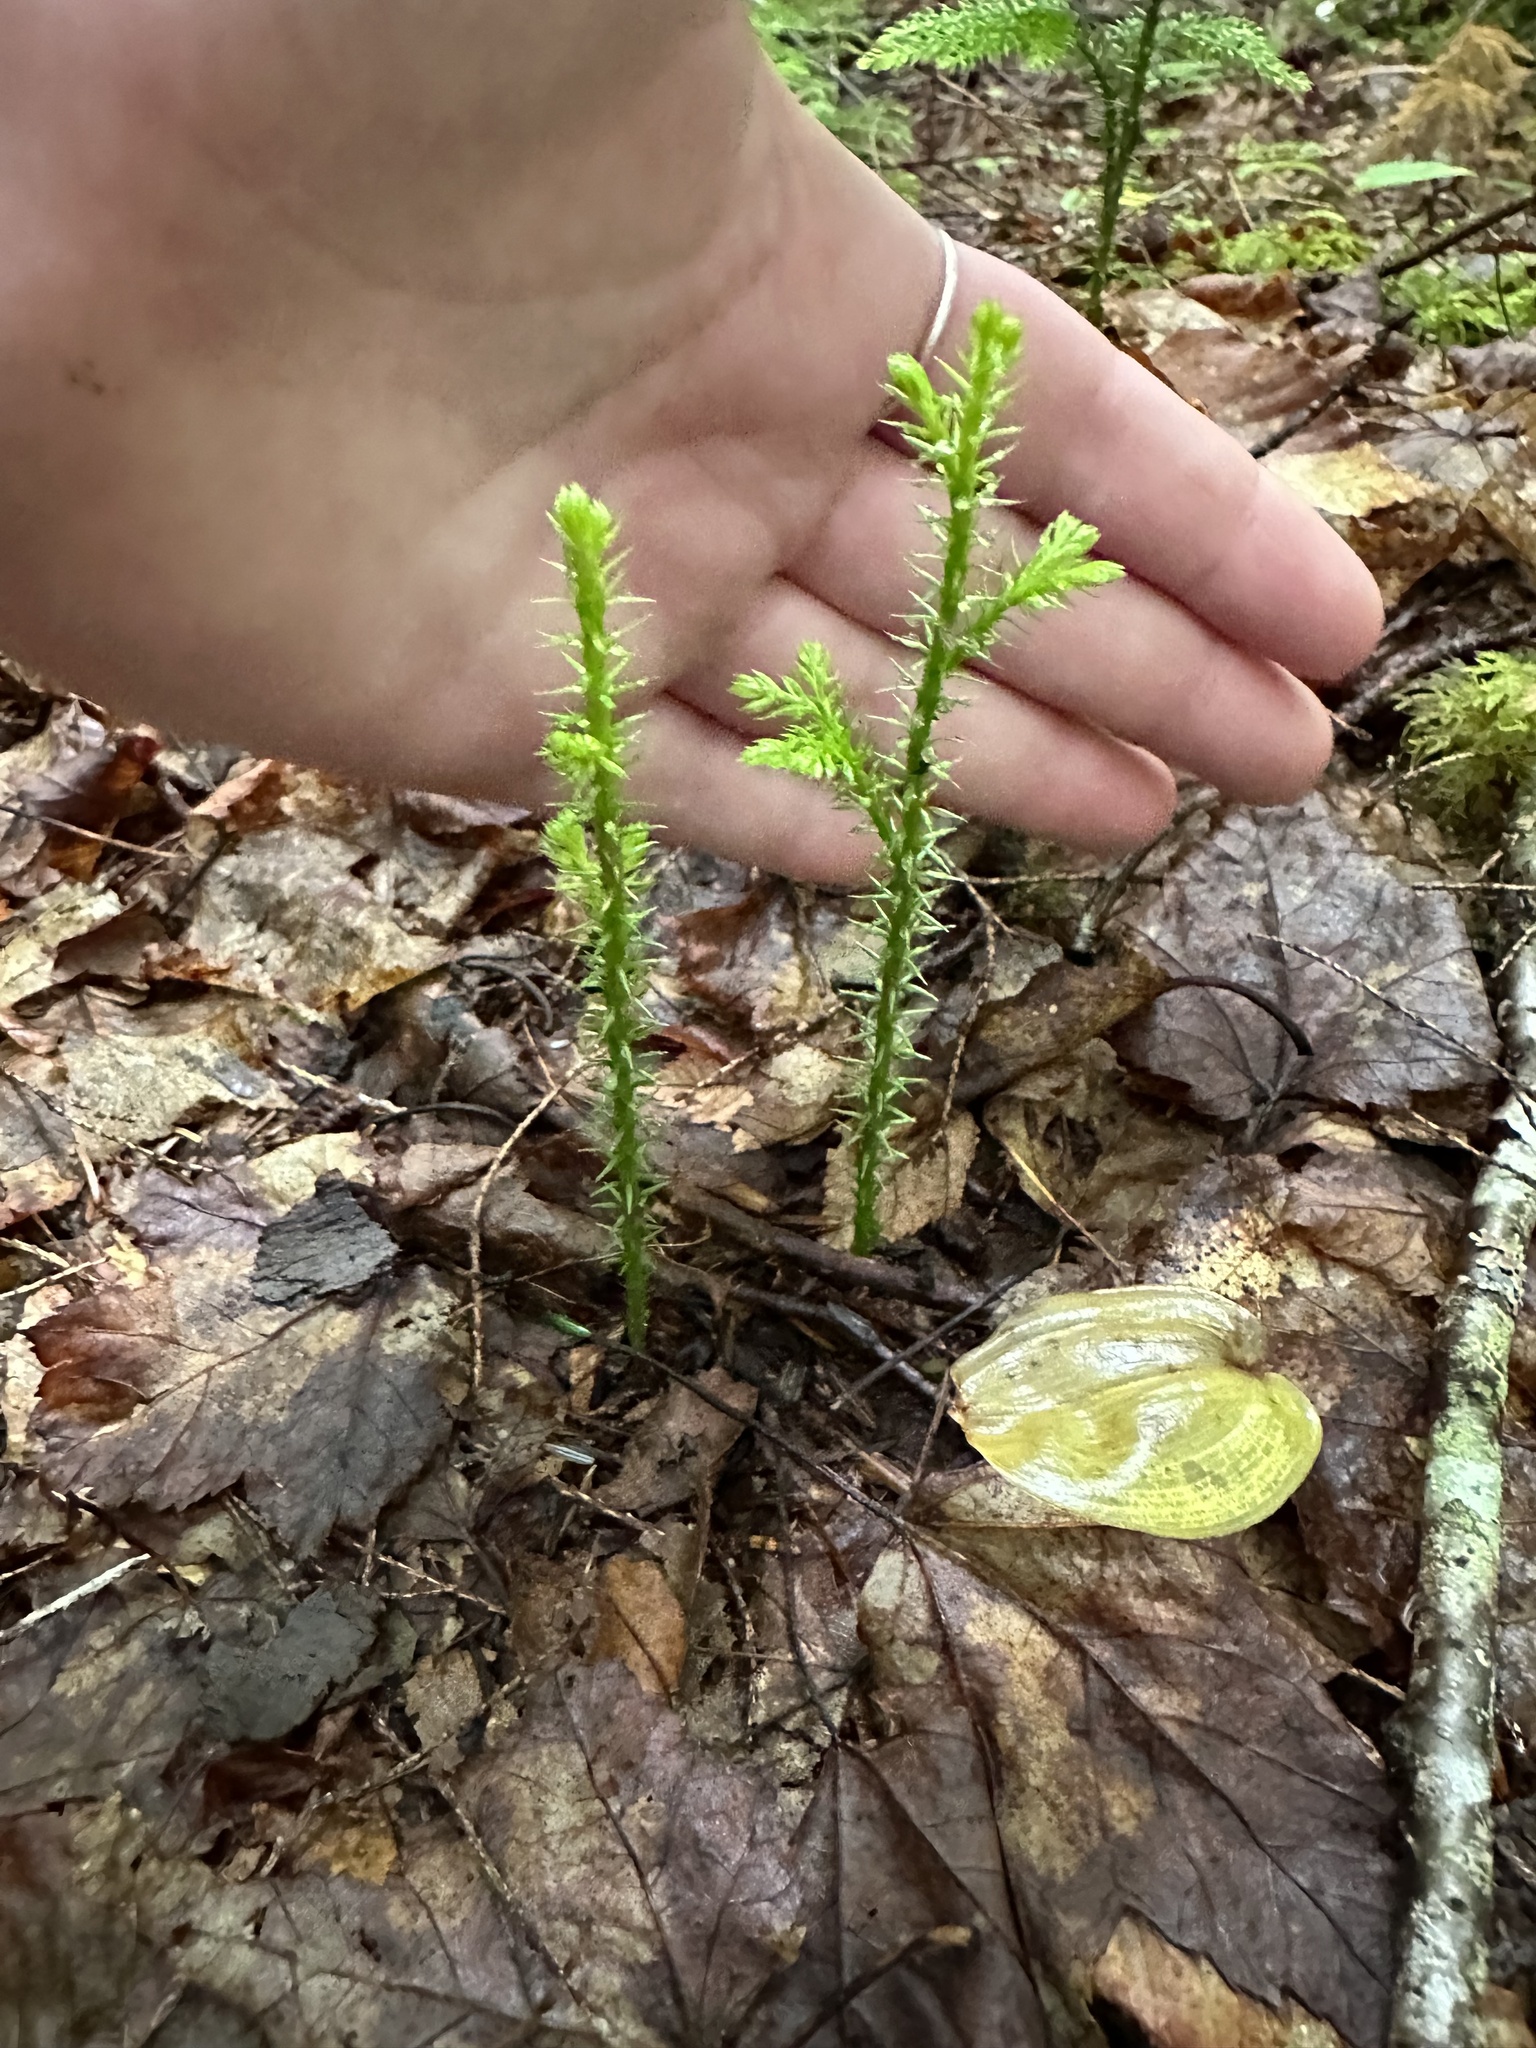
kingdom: Plantae
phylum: Tracheophyta
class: Lycopodiopsida
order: Lycopodiales
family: Lycopodiaceae
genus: Dendrolycopodium
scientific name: Dendrolycopodium dendroideum
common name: Northern tree-clubmoss
